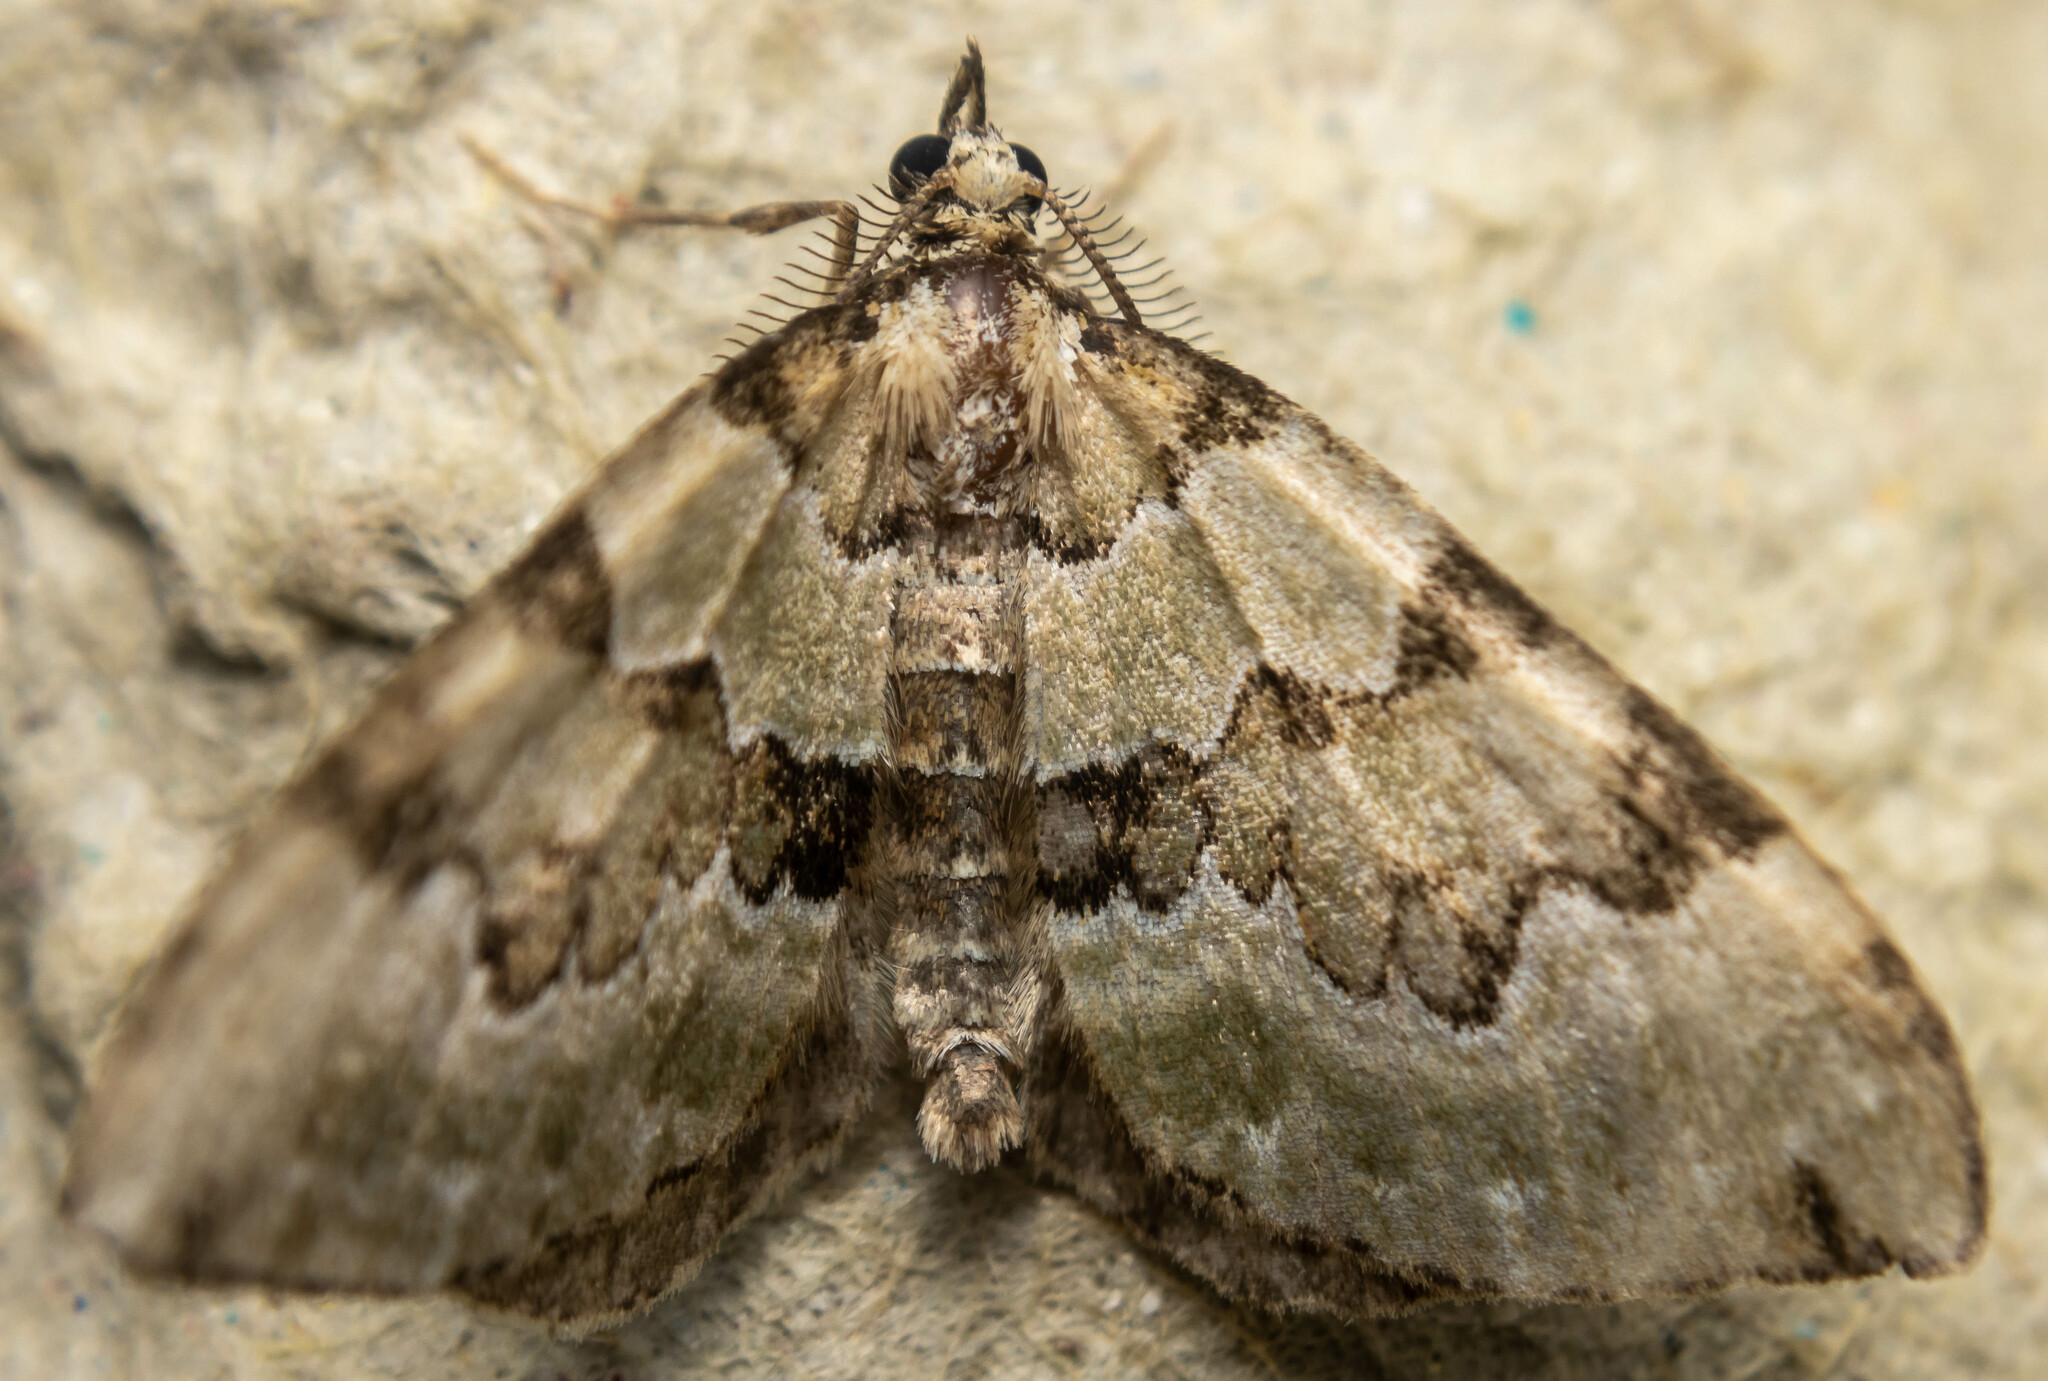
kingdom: Animalia
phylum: Arthropoda
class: Insecta
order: Lepidoptera
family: Geometridae
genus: Colostygia
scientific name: Colostygia pectinataria
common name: Green carpet
